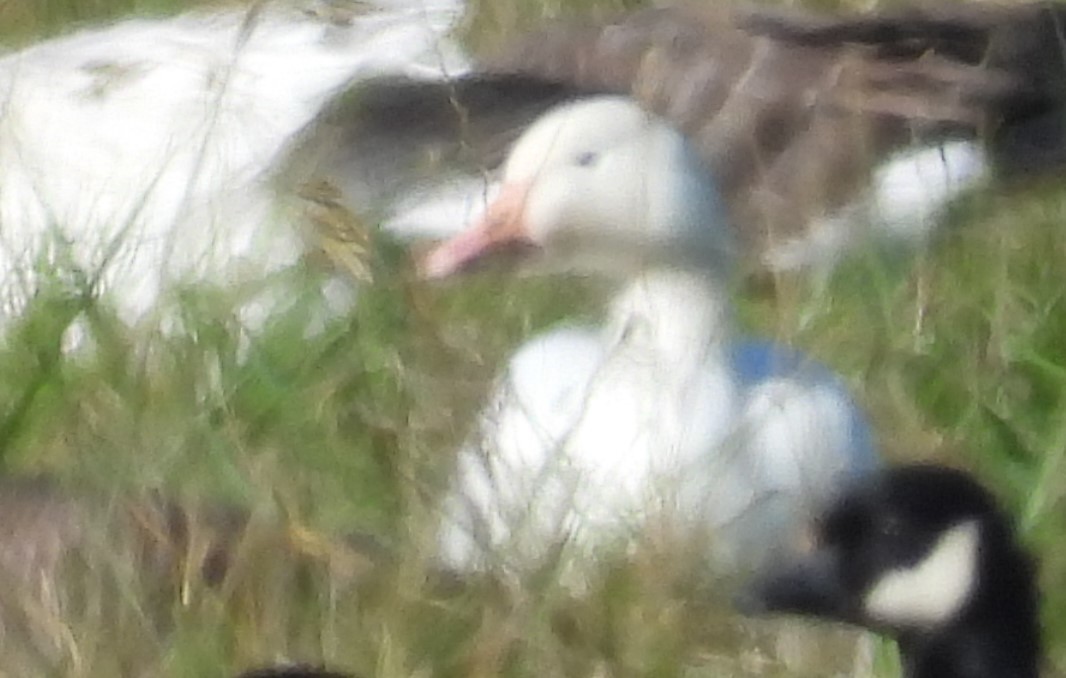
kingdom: Animalia
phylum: Chordata
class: Aves
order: Anseriformes
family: Anatidae
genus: Anser
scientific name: Anser caerulescens
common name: Snow goose
